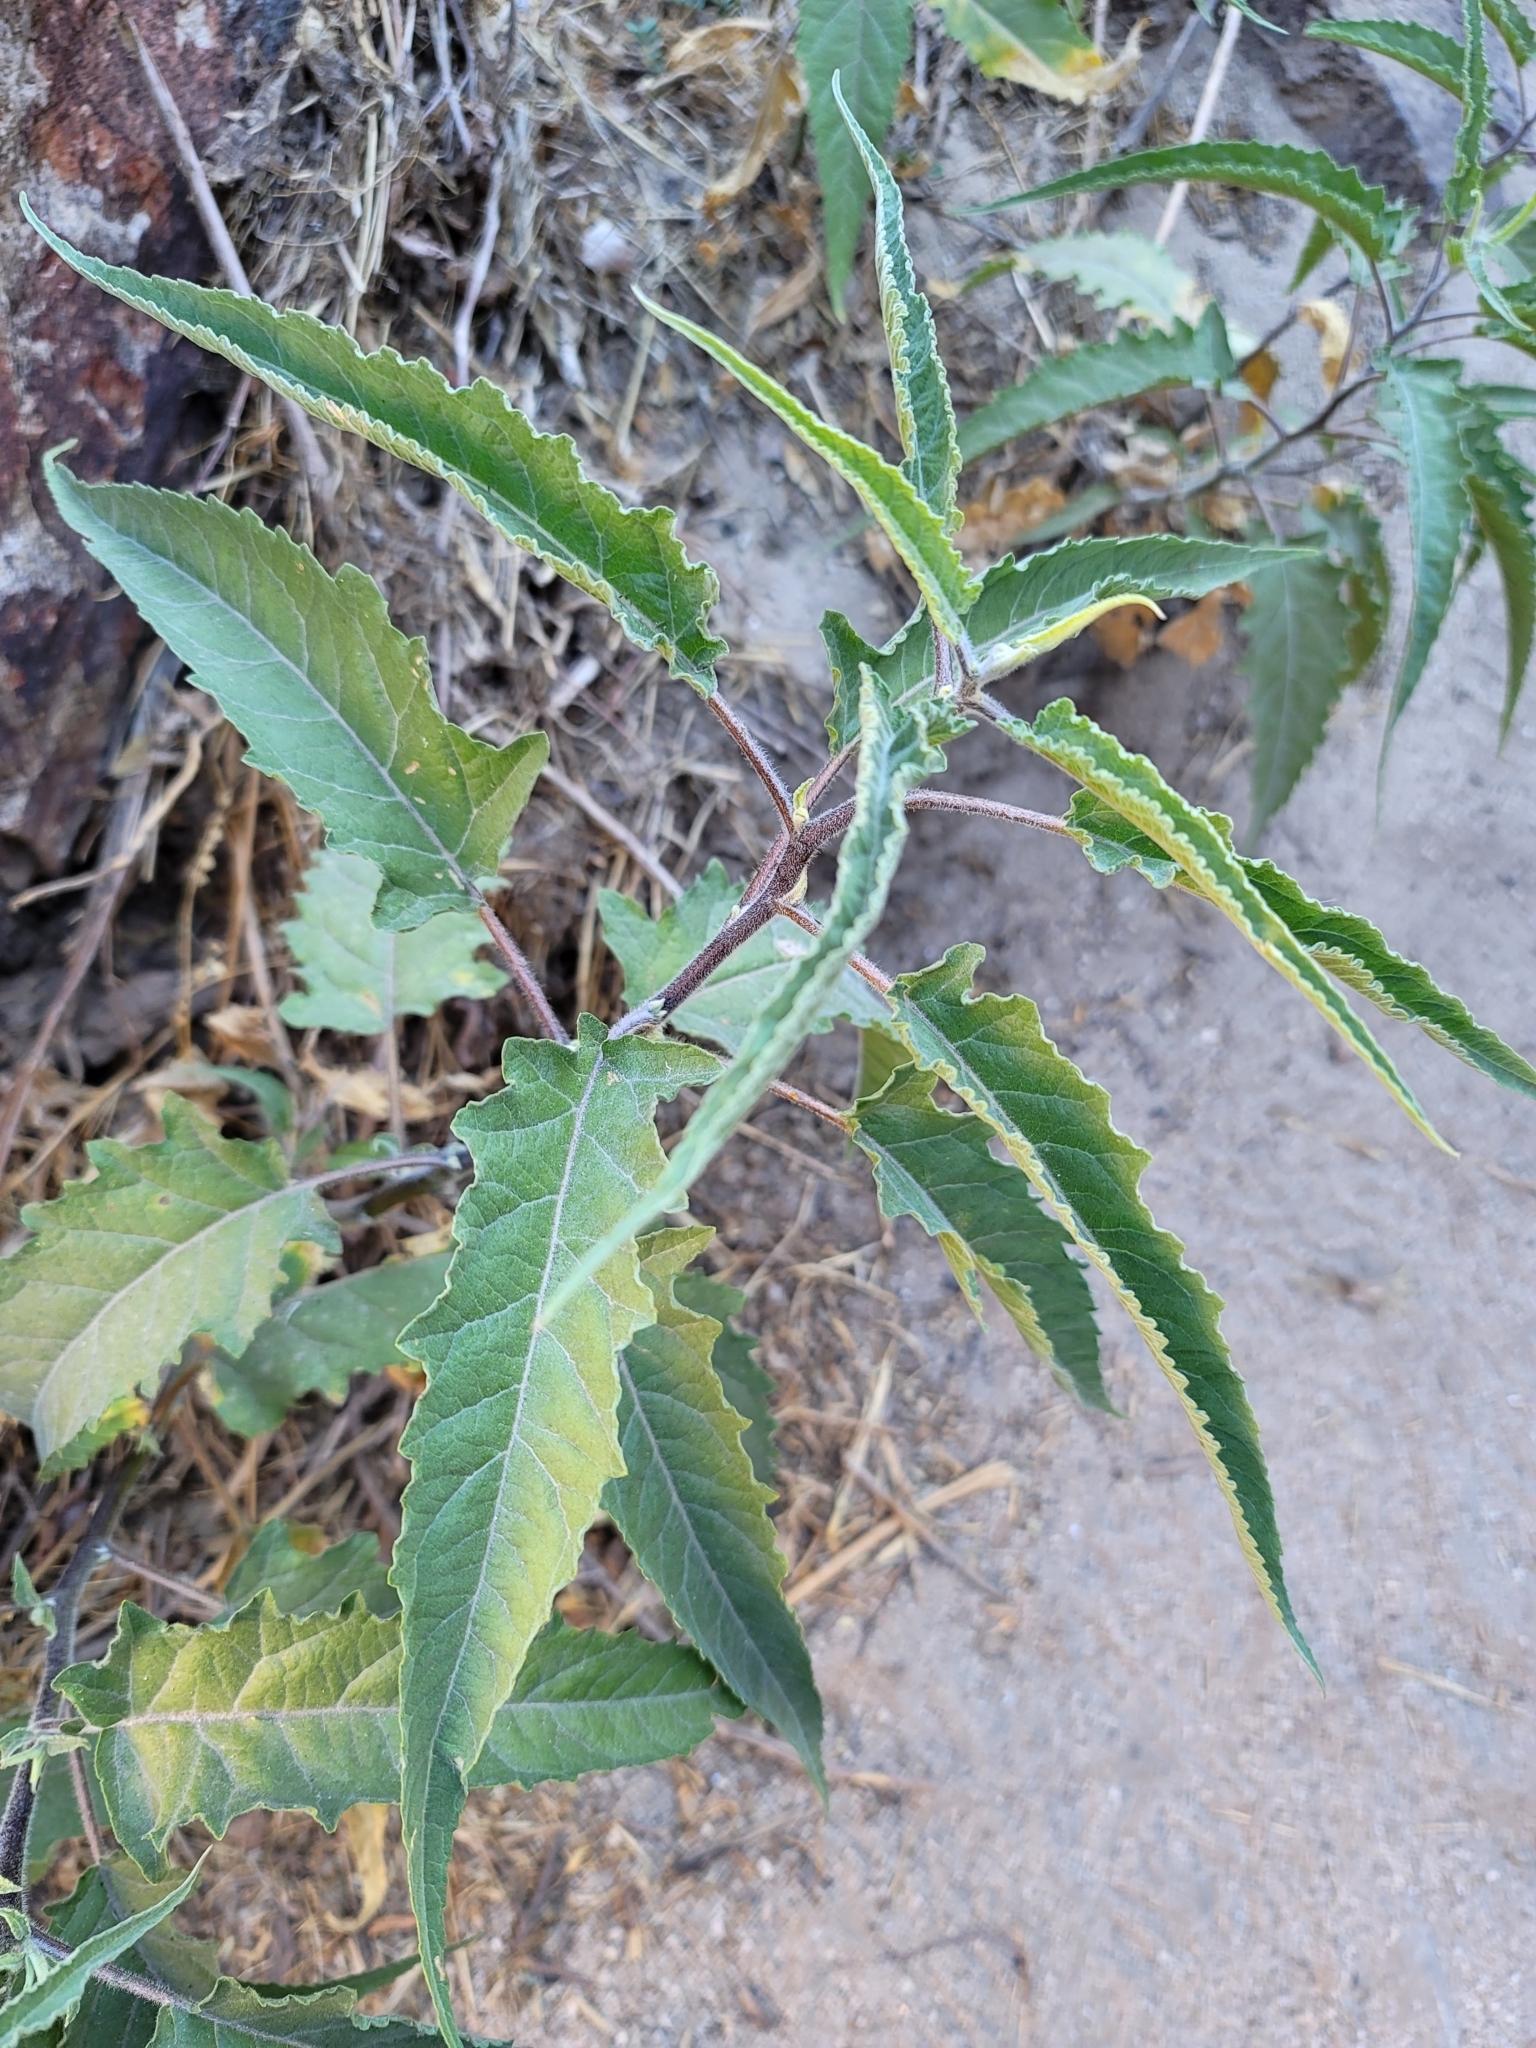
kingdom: Plantae
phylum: Tracheophyta
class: Magnoliopsida
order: Asterales
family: Asteraceae
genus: Ambrosia
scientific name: Ambrosia ambrosioides
